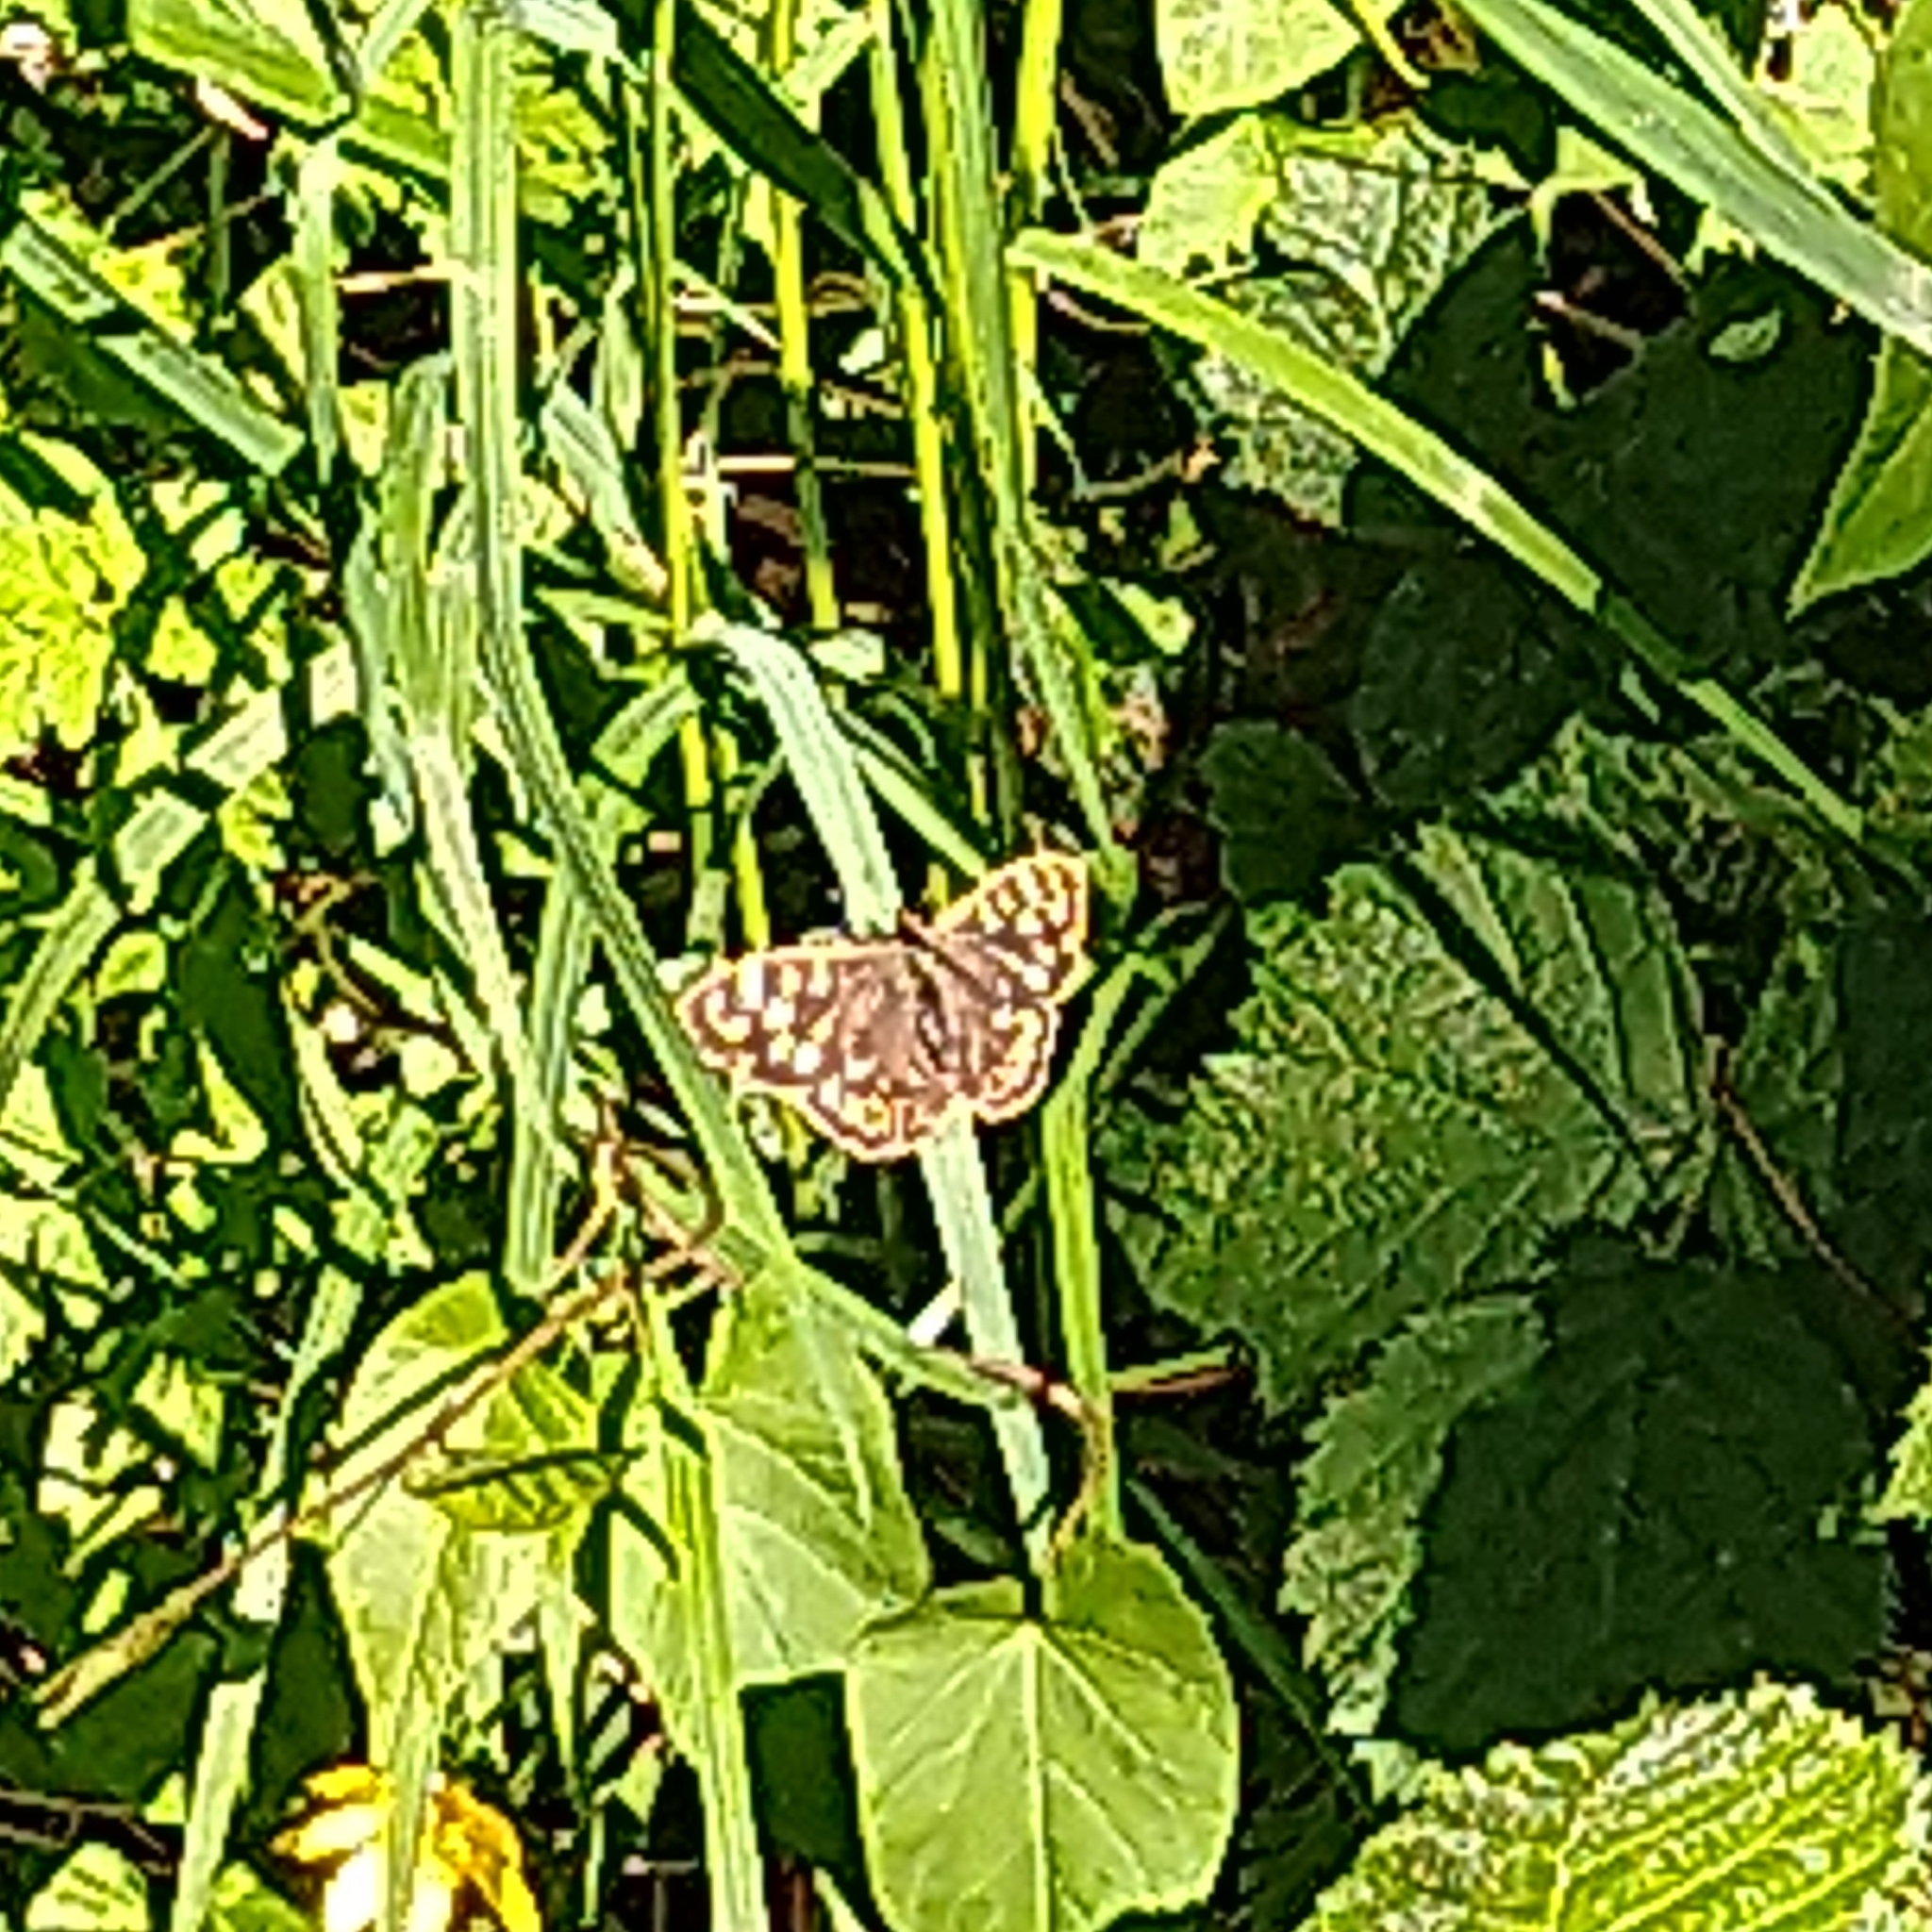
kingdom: Animalia
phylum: Arthropoda
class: Insecta
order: Lepidoptera
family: Nymphalidae
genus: Pararge
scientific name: Pararge aegeria
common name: Speckled wood
